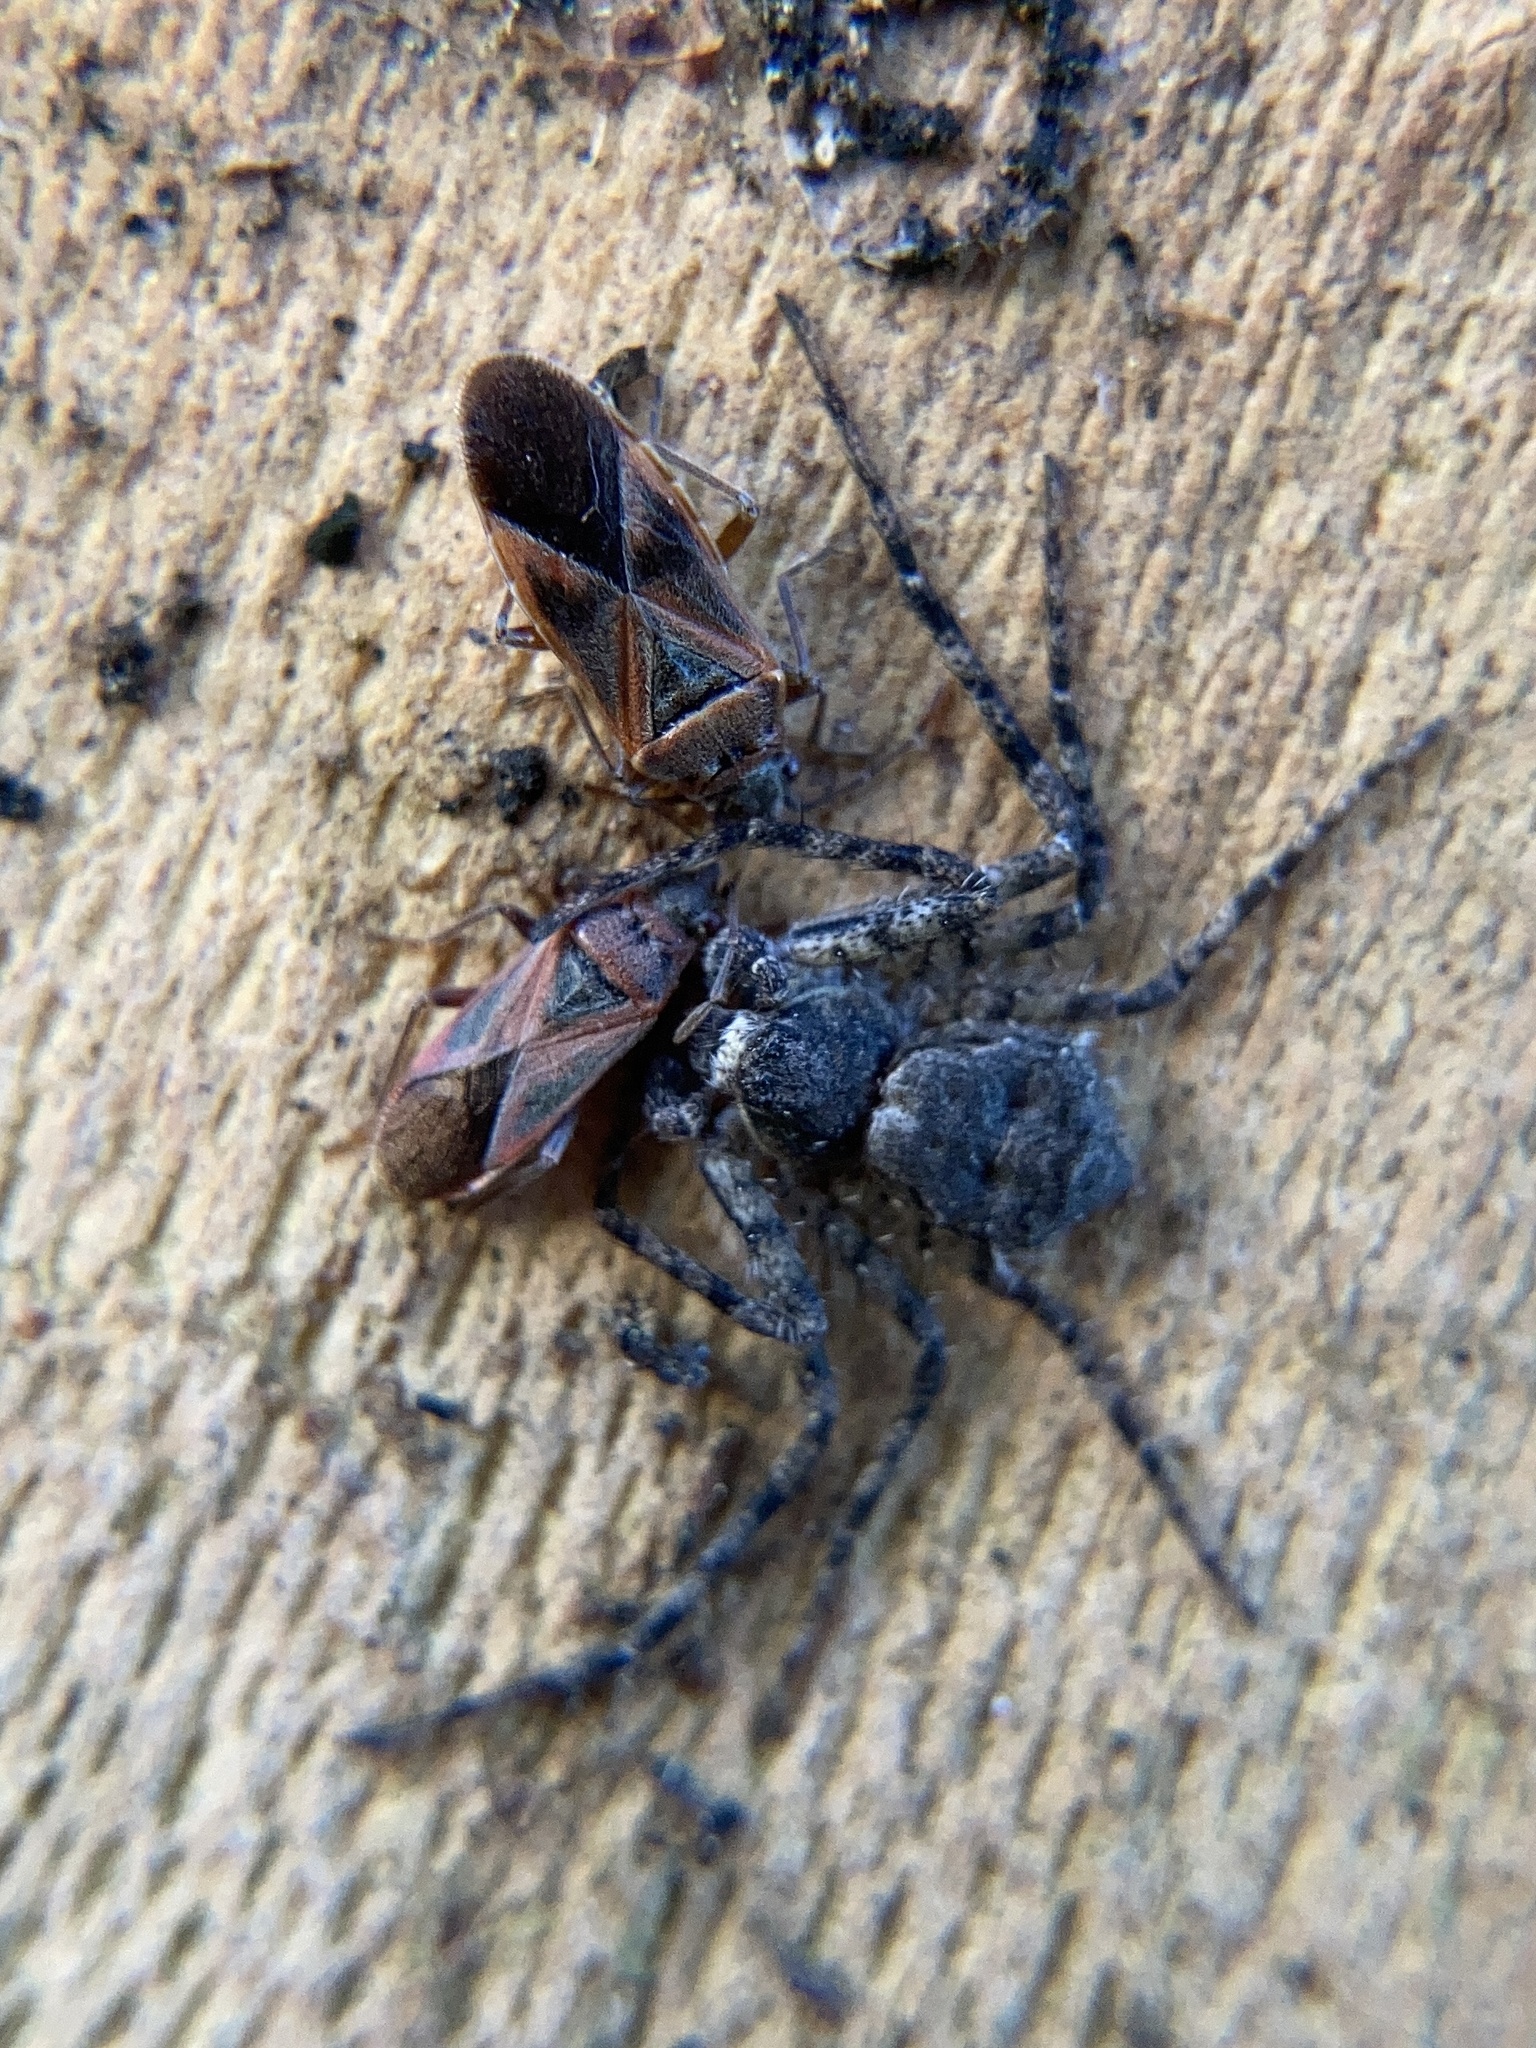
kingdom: Animalia
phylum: Arthropoda
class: Insecta
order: Hemiptera
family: Lygaeidae
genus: Arocatus
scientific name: Arocatus roeselii
